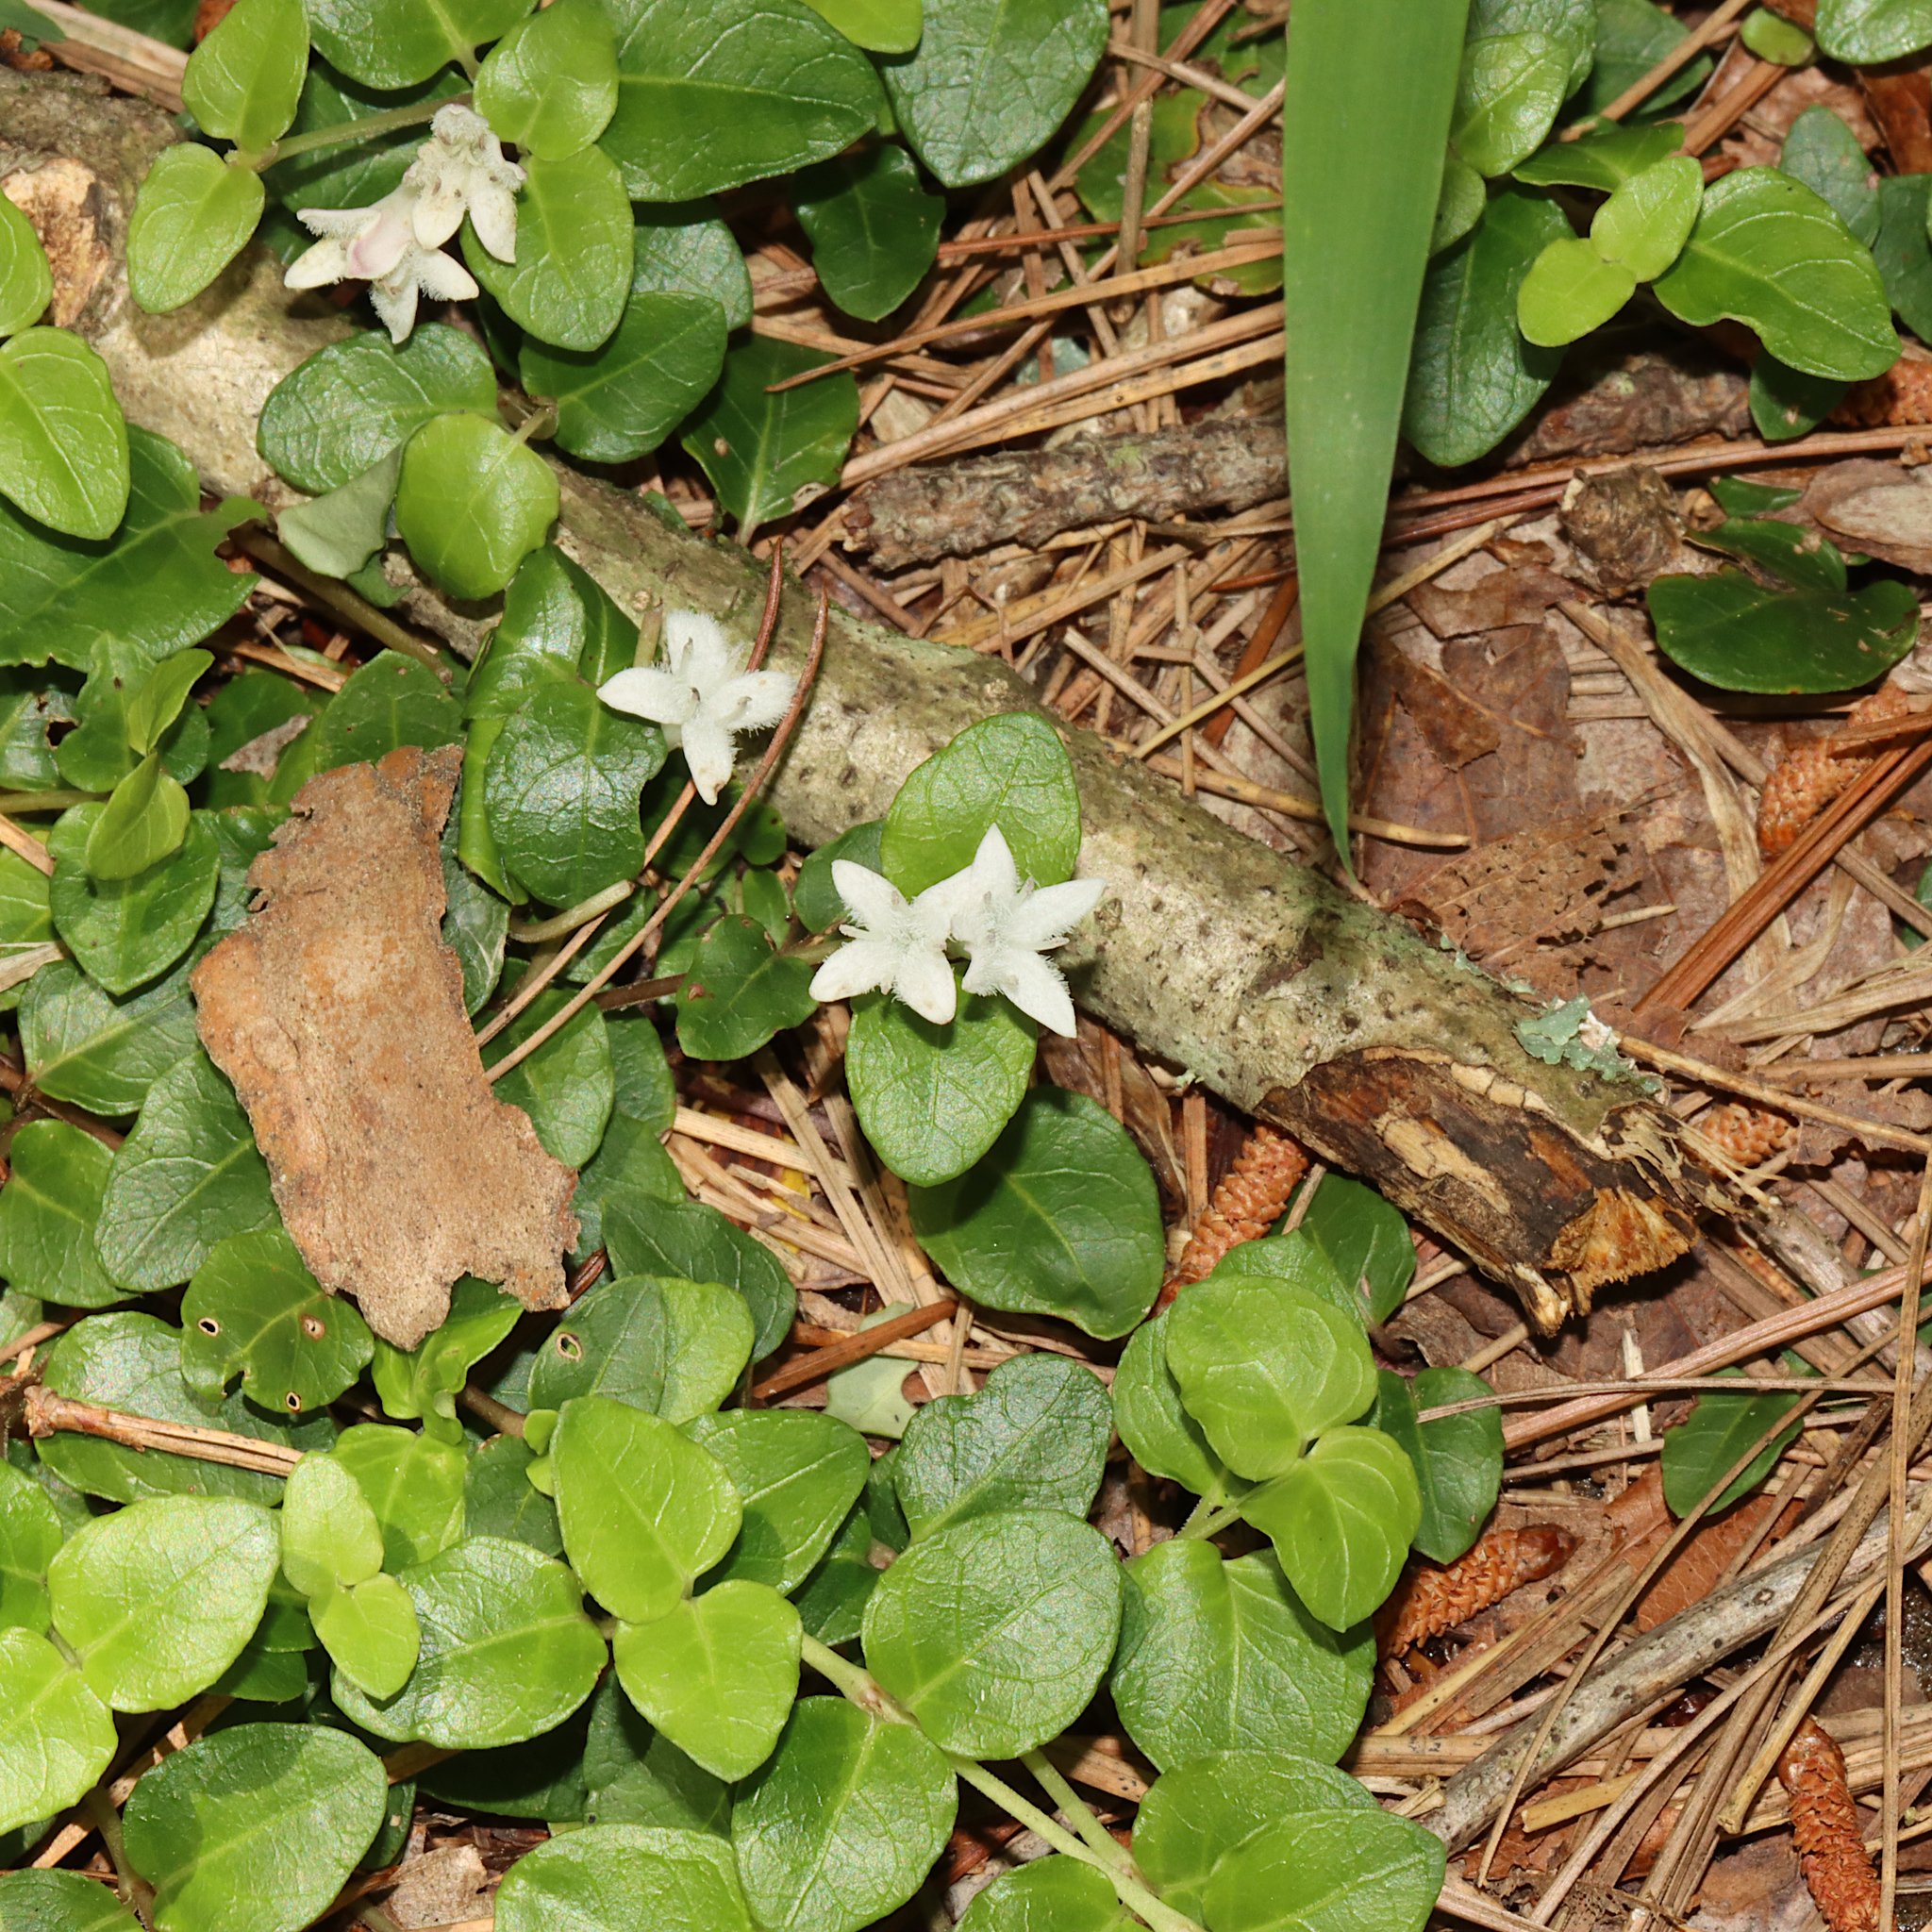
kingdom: Plantae
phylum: Tracheophyta
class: Magnoliopsida
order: Gentianales
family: Rubiaceae
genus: Mitchella
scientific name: Mitchella repens
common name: Partridge-berry
